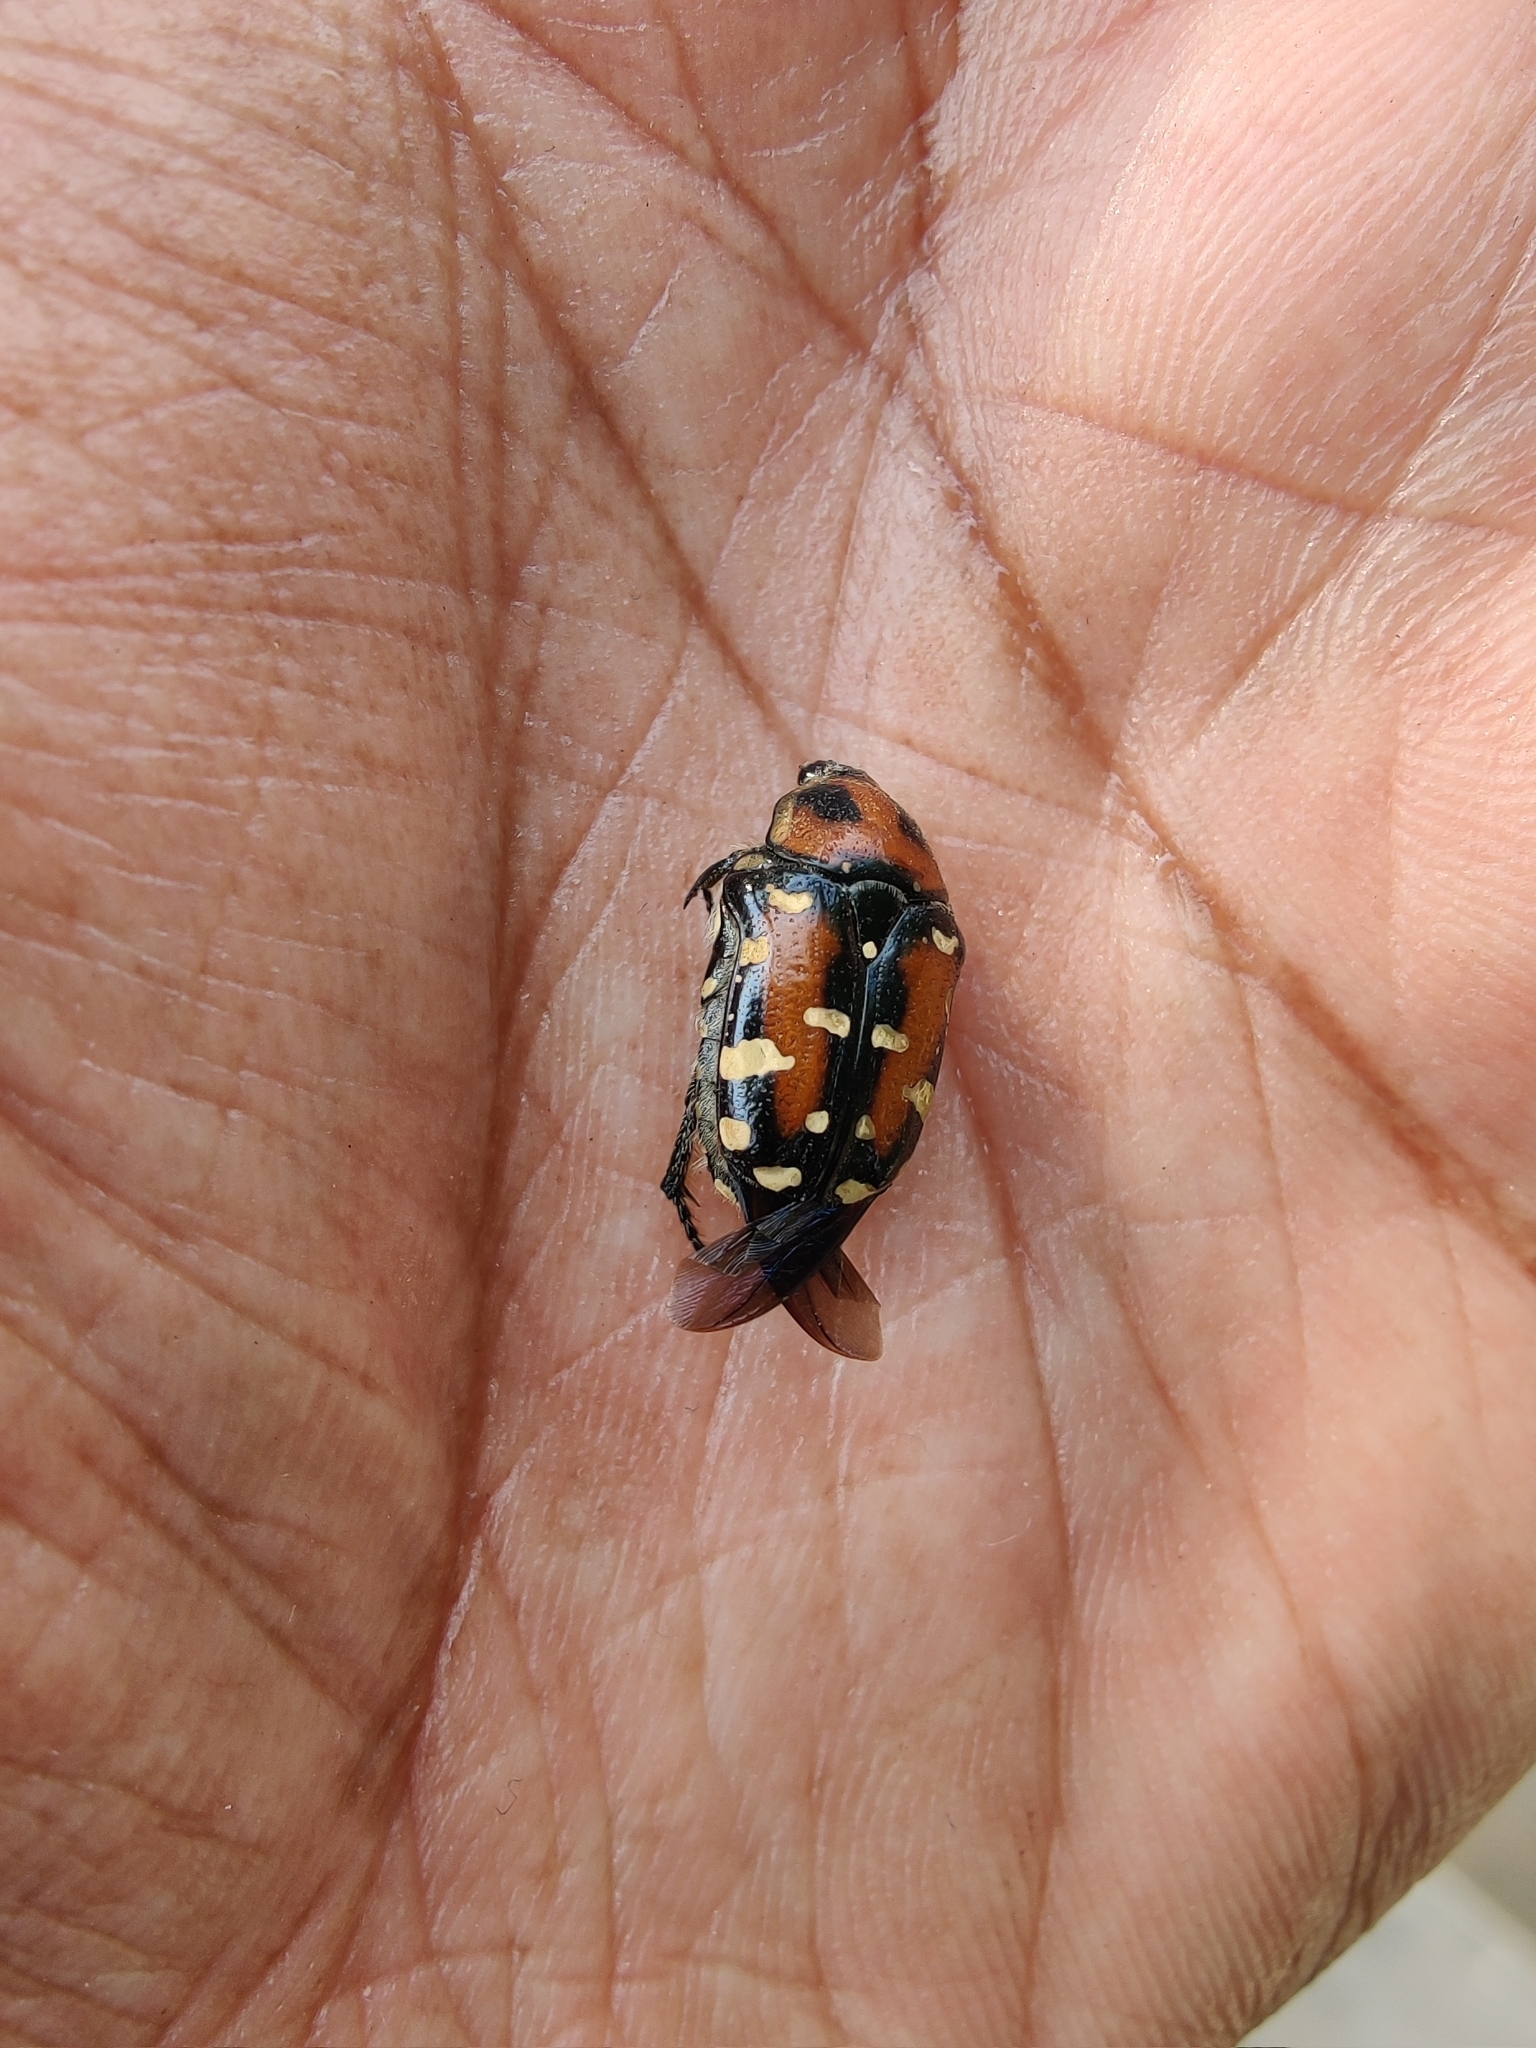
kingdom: Animalia
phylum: Arthropoda
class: Insecta
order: Coleoptera
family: Scarabaeidae
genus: Gametis
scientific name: Gametis versicolor
